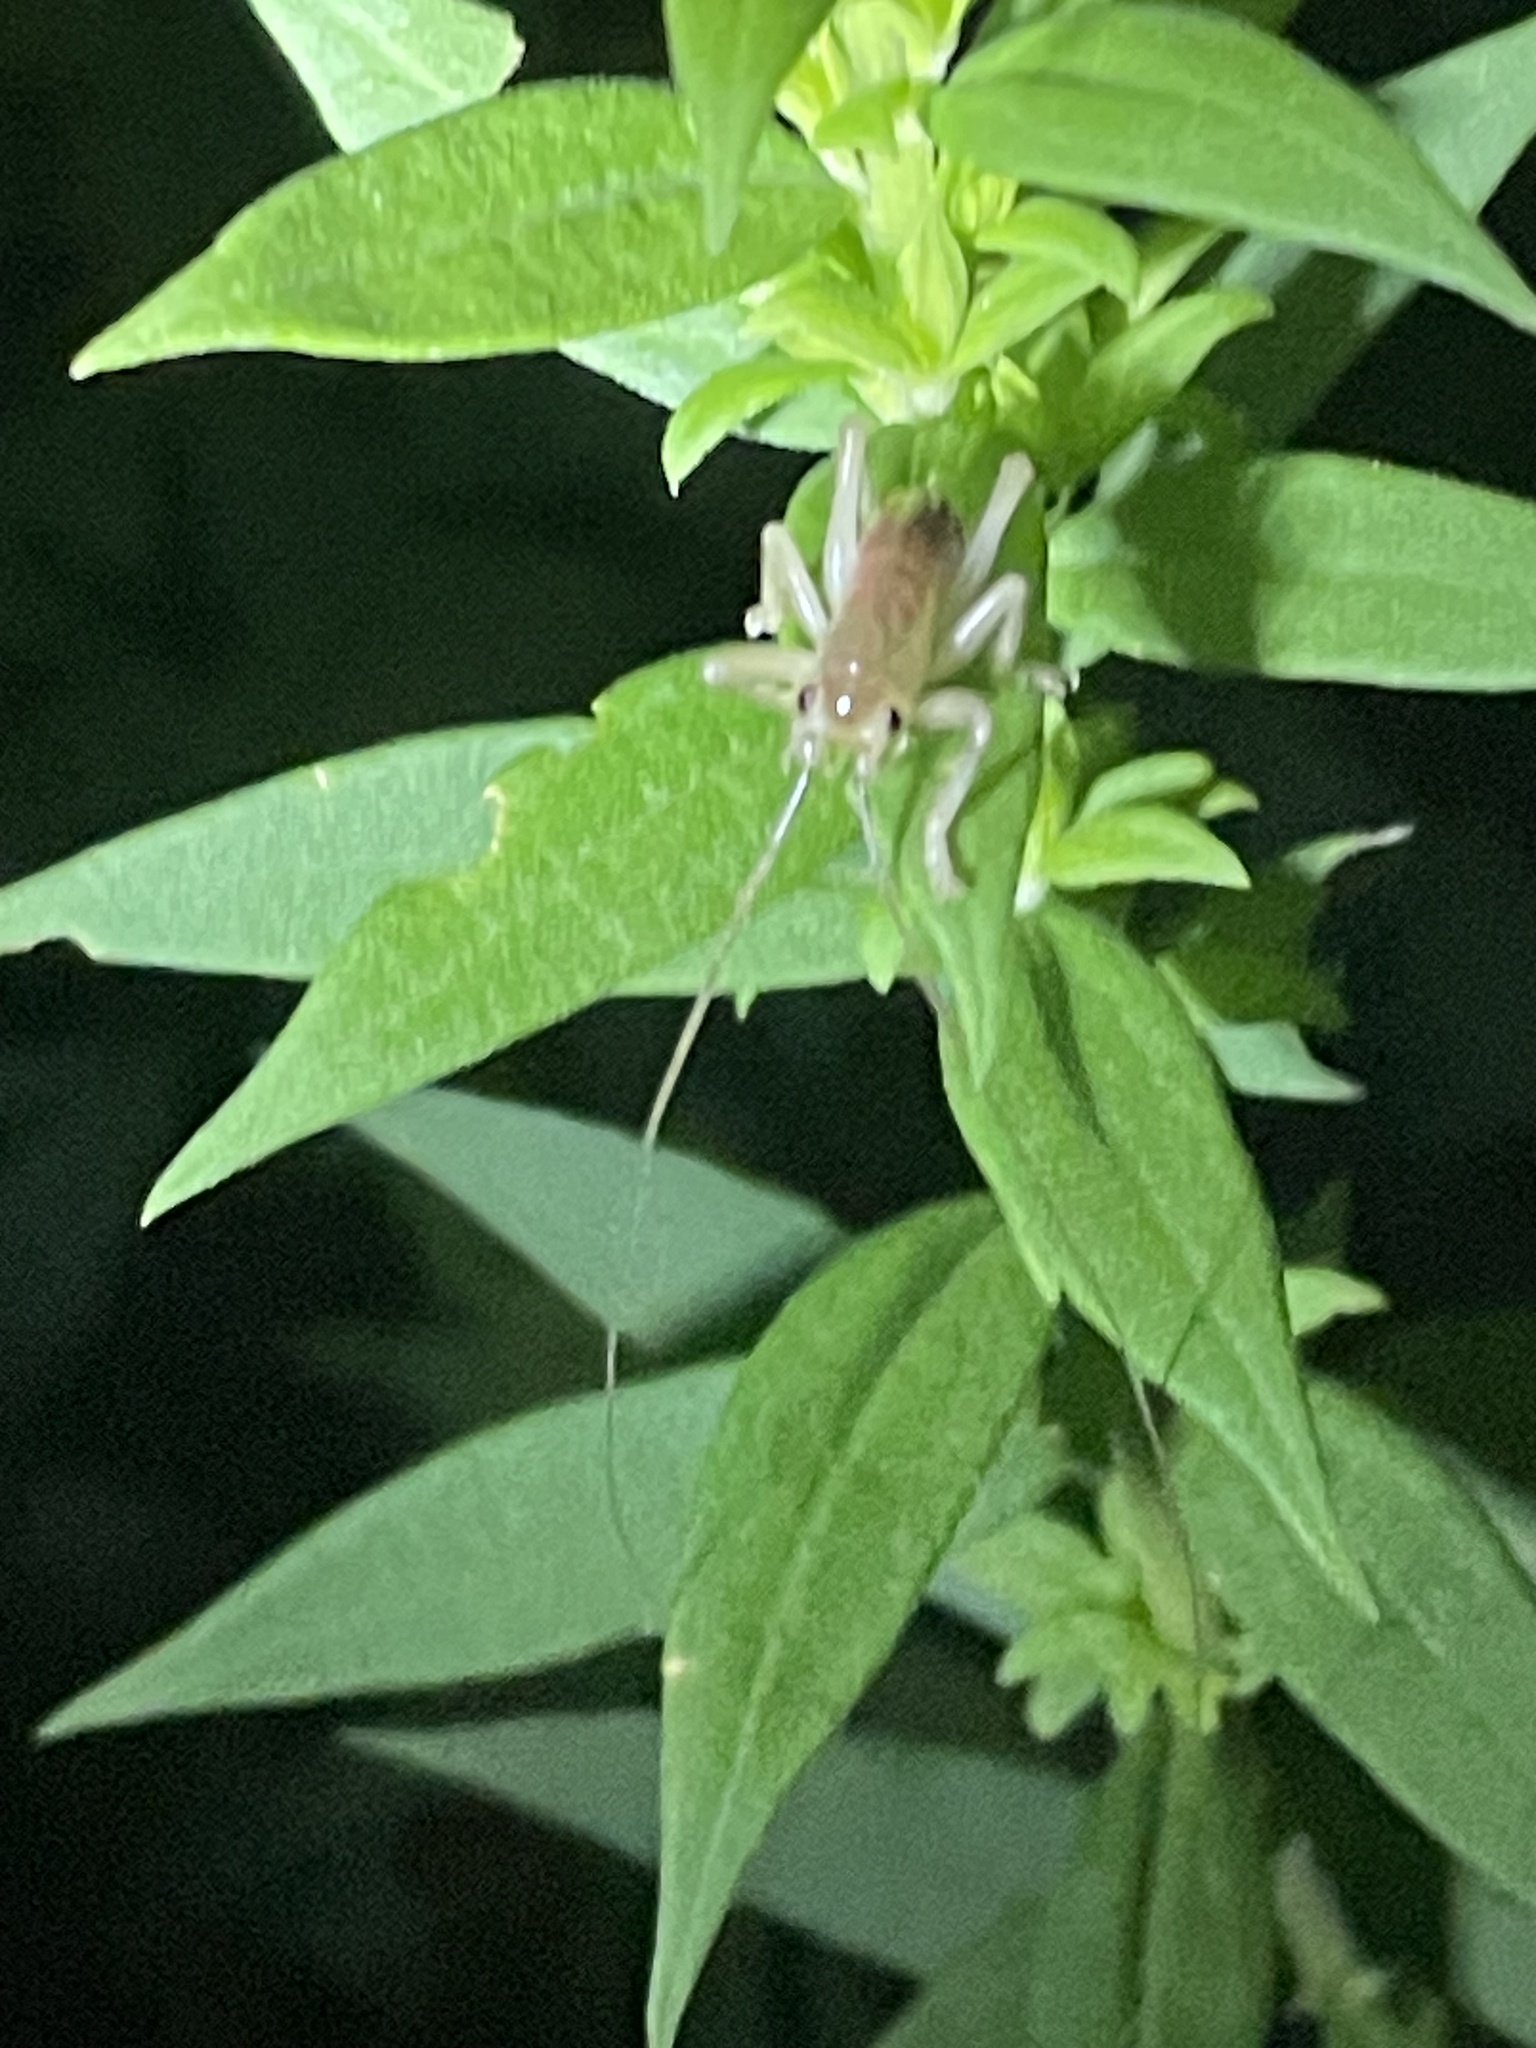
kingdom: Animalia
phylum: Arthropoda
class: Insecta
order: Orthoptera
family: Gryllacrididae
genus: Camptonotus
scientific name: Camptonotus carolinensis
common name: Carolina leaf-roller
